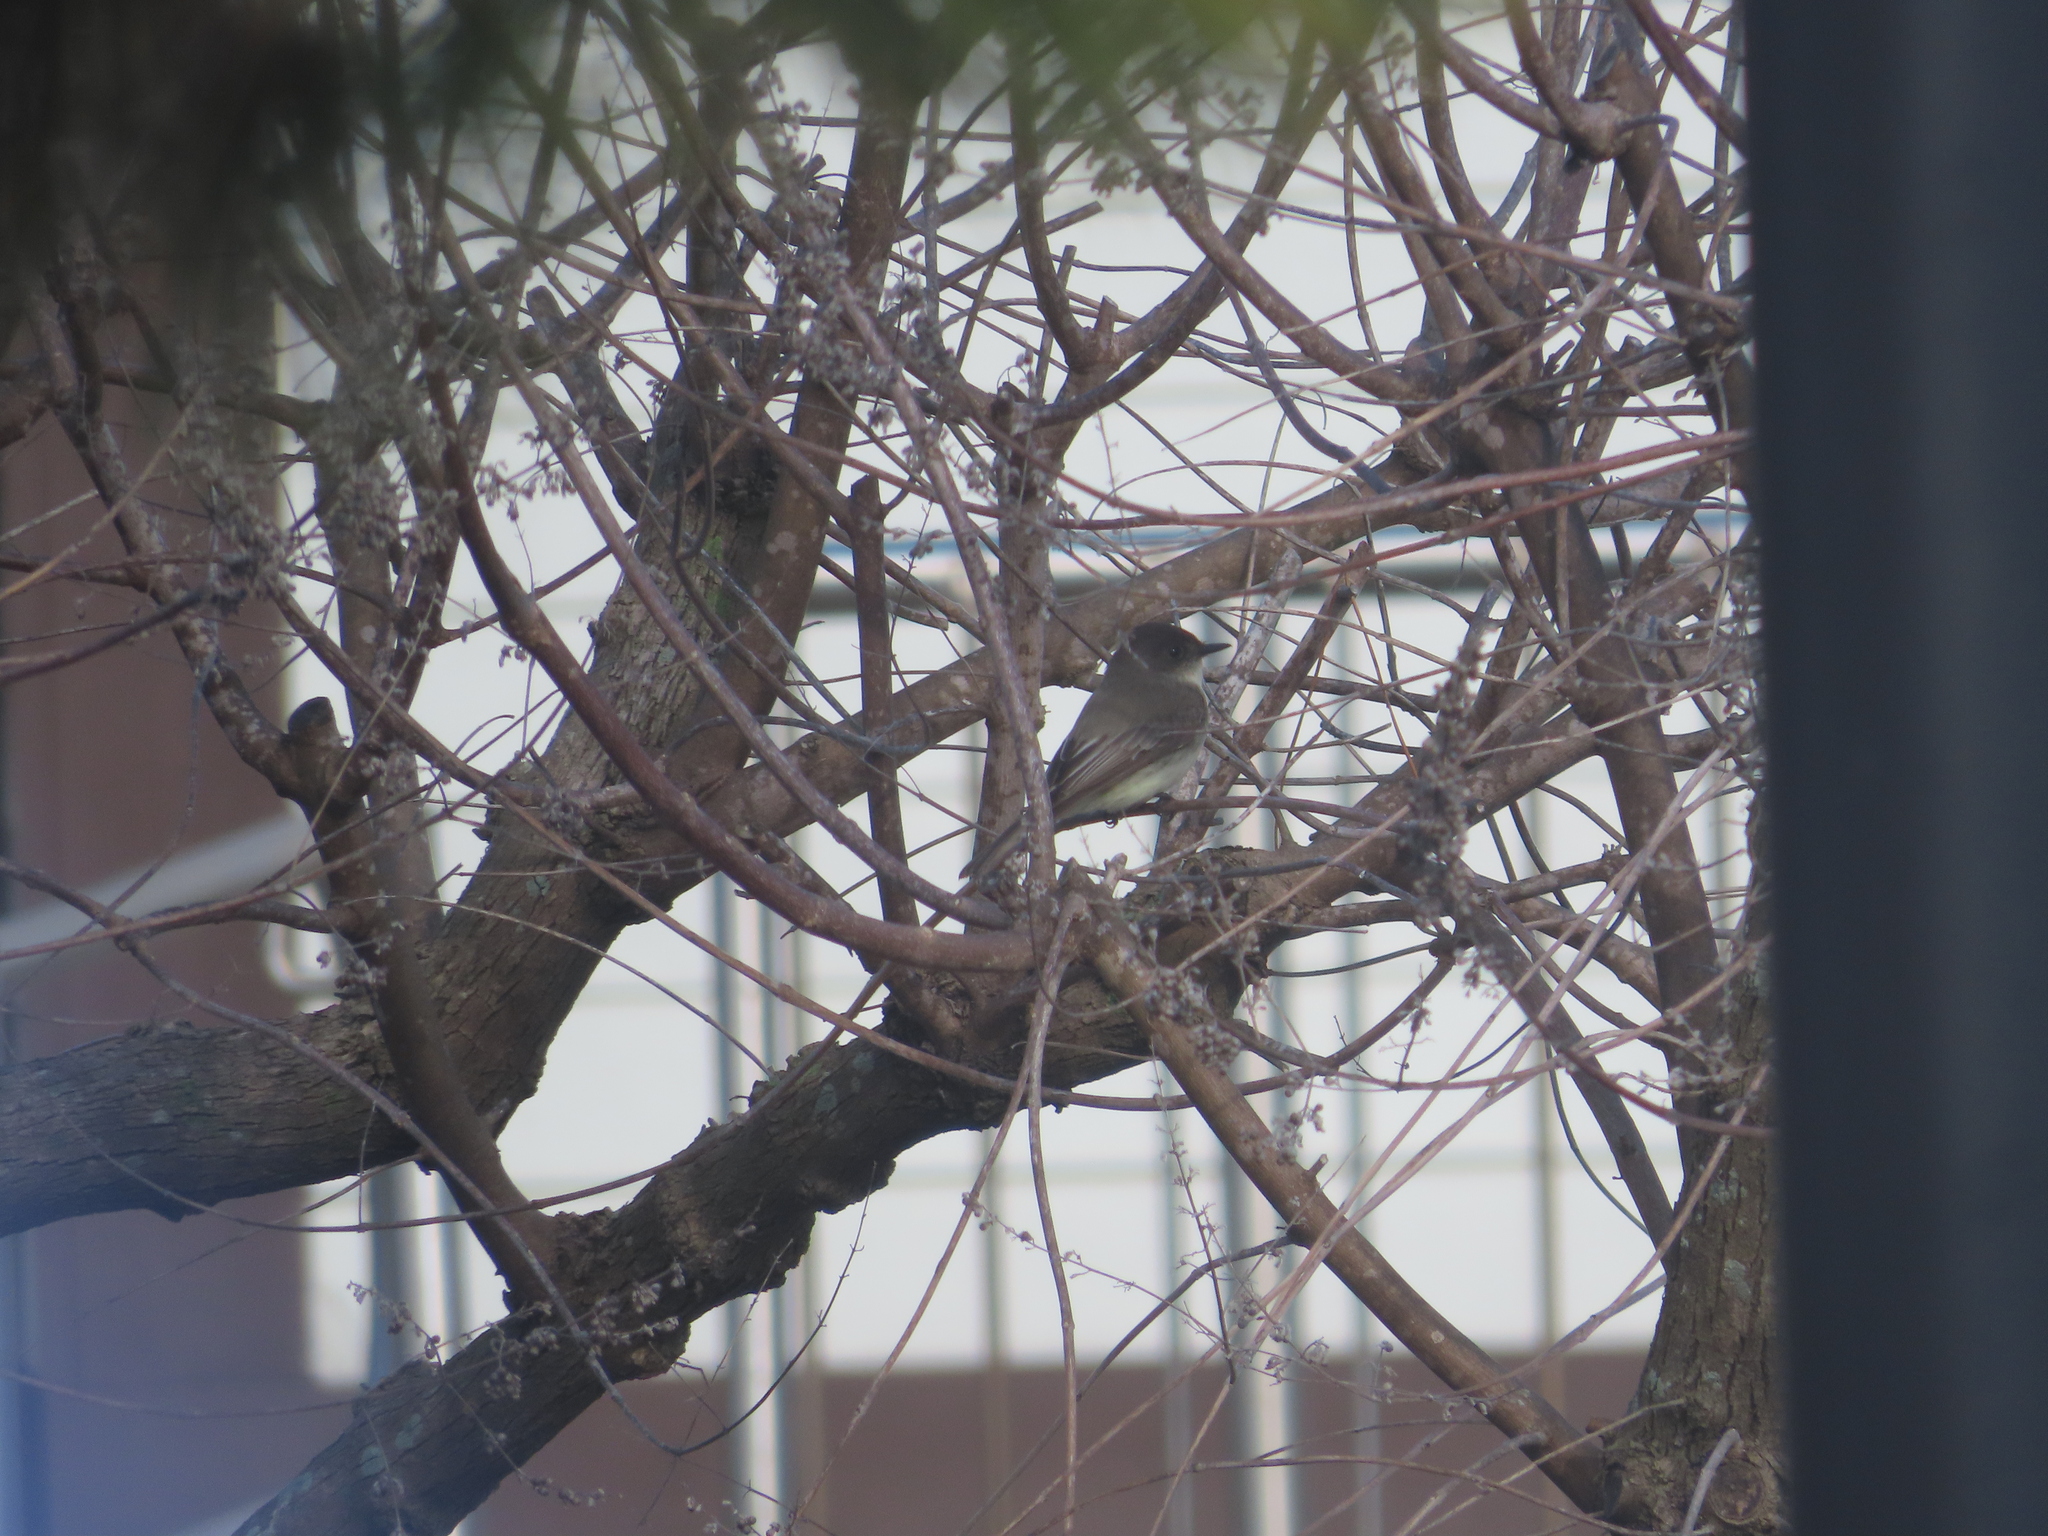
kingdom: Animalia
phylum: Chordata
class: Aves
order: Passeriformes
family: Tyrannidae
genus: Sayornis
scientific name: Sayornis phoebe
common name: Eastern phoebe
